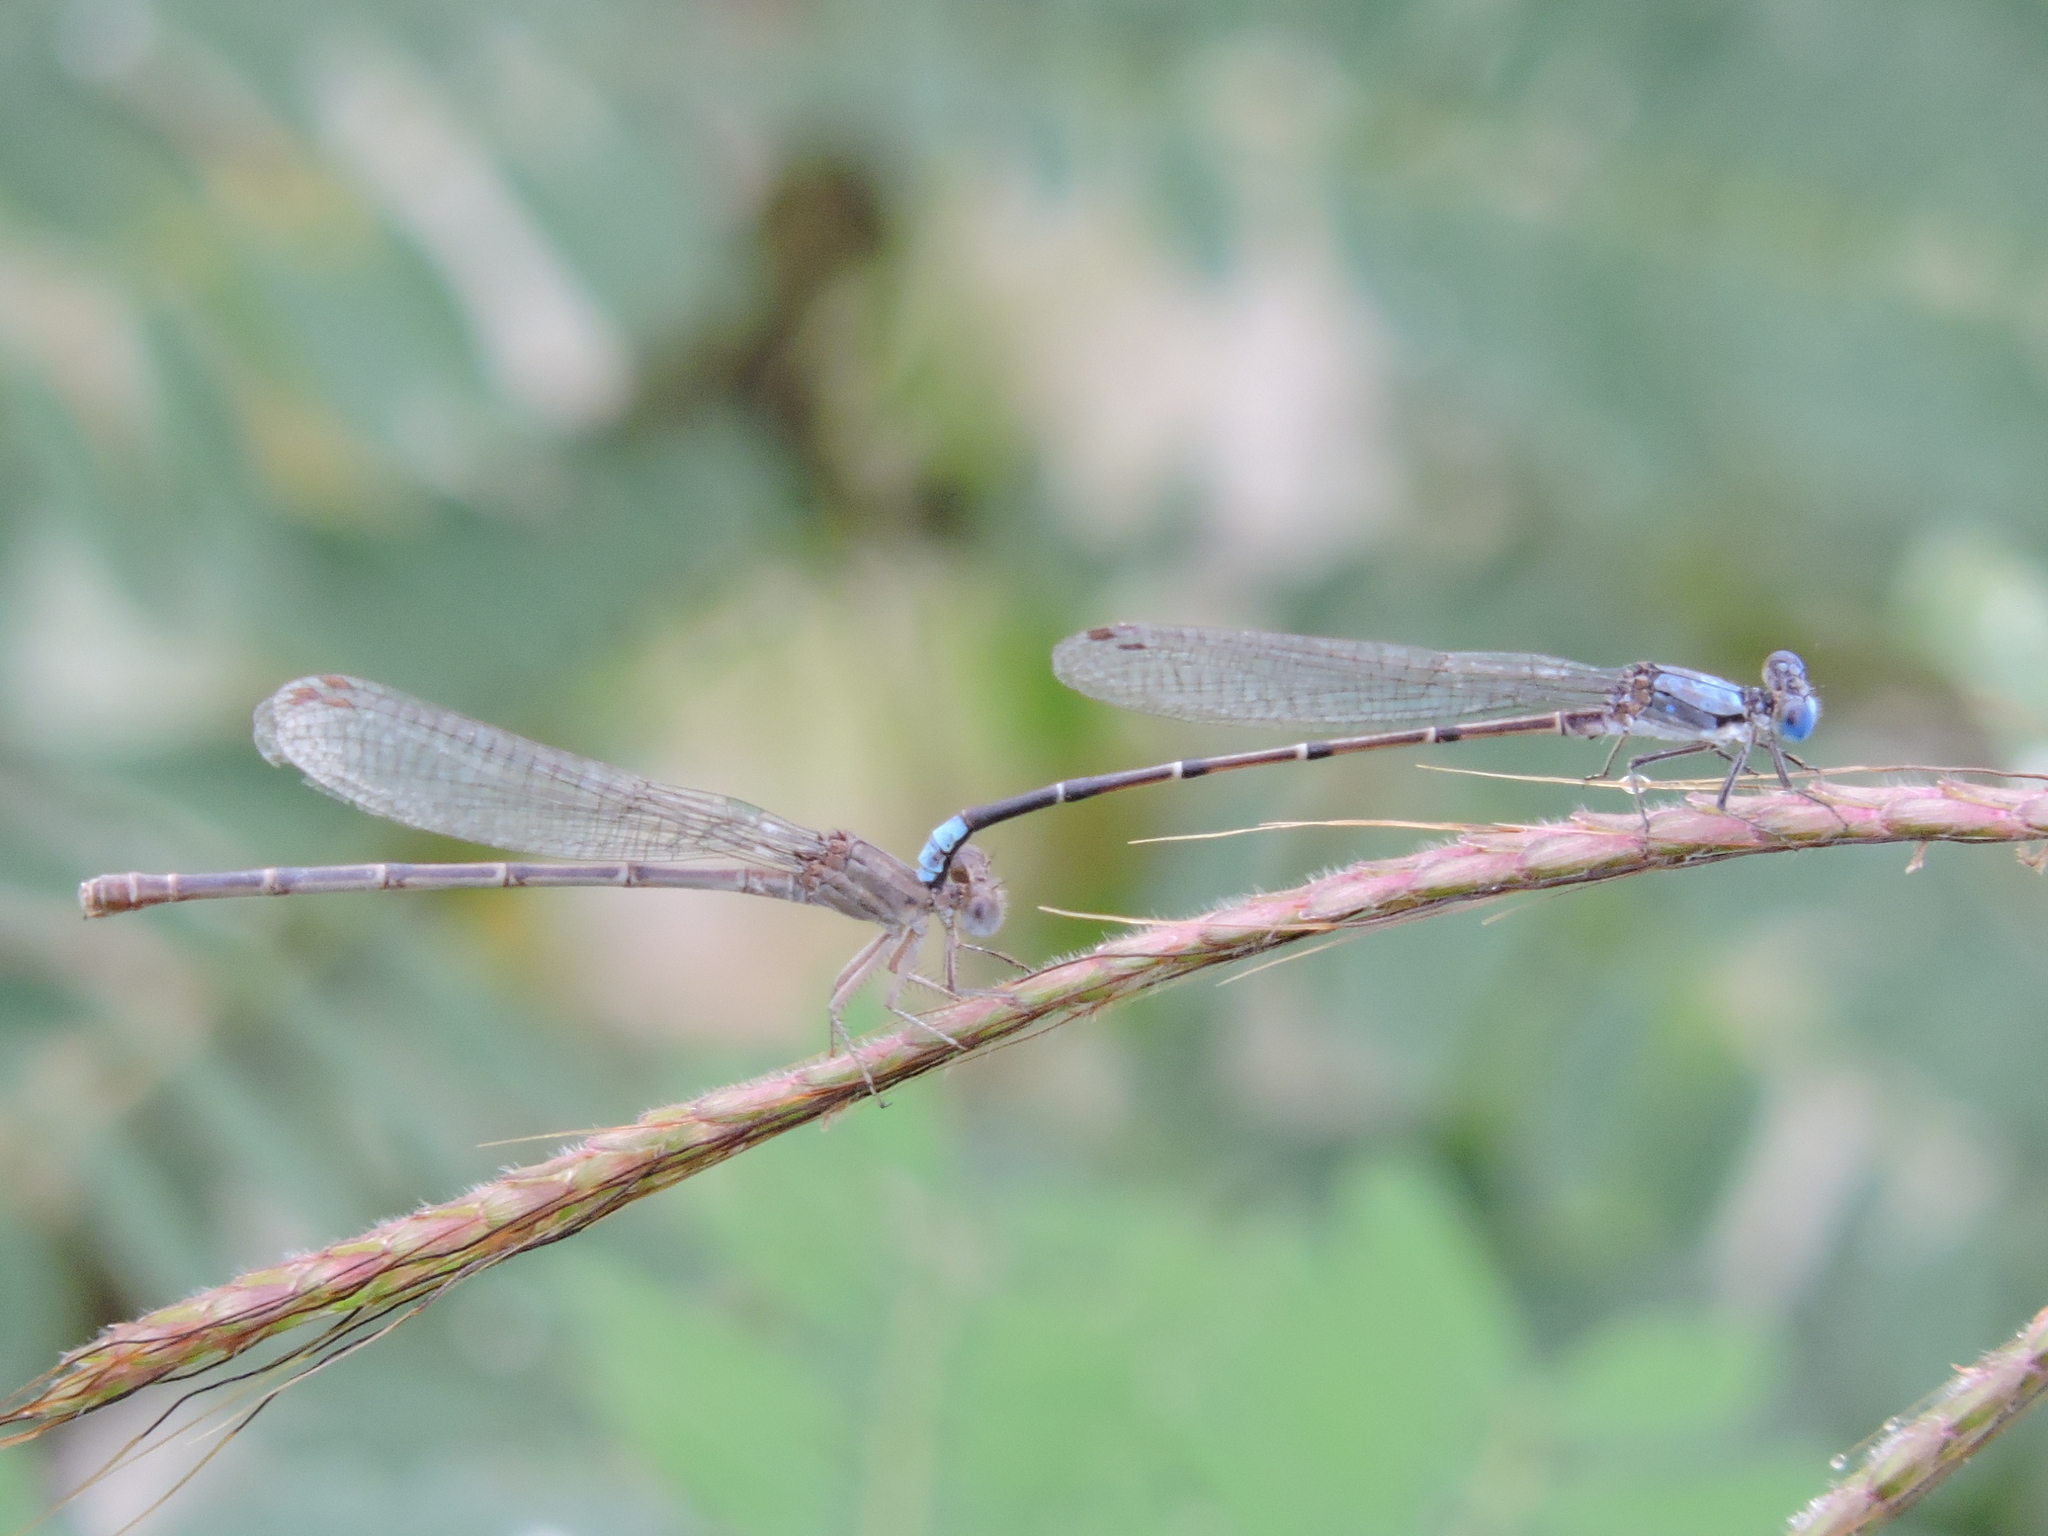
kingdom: Animalia
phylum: Arthropoda
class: Insecta
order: Odonata
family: Coenagrionidae
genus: Argia
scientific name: Argia apicalis
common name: Blue-fronted dancer
